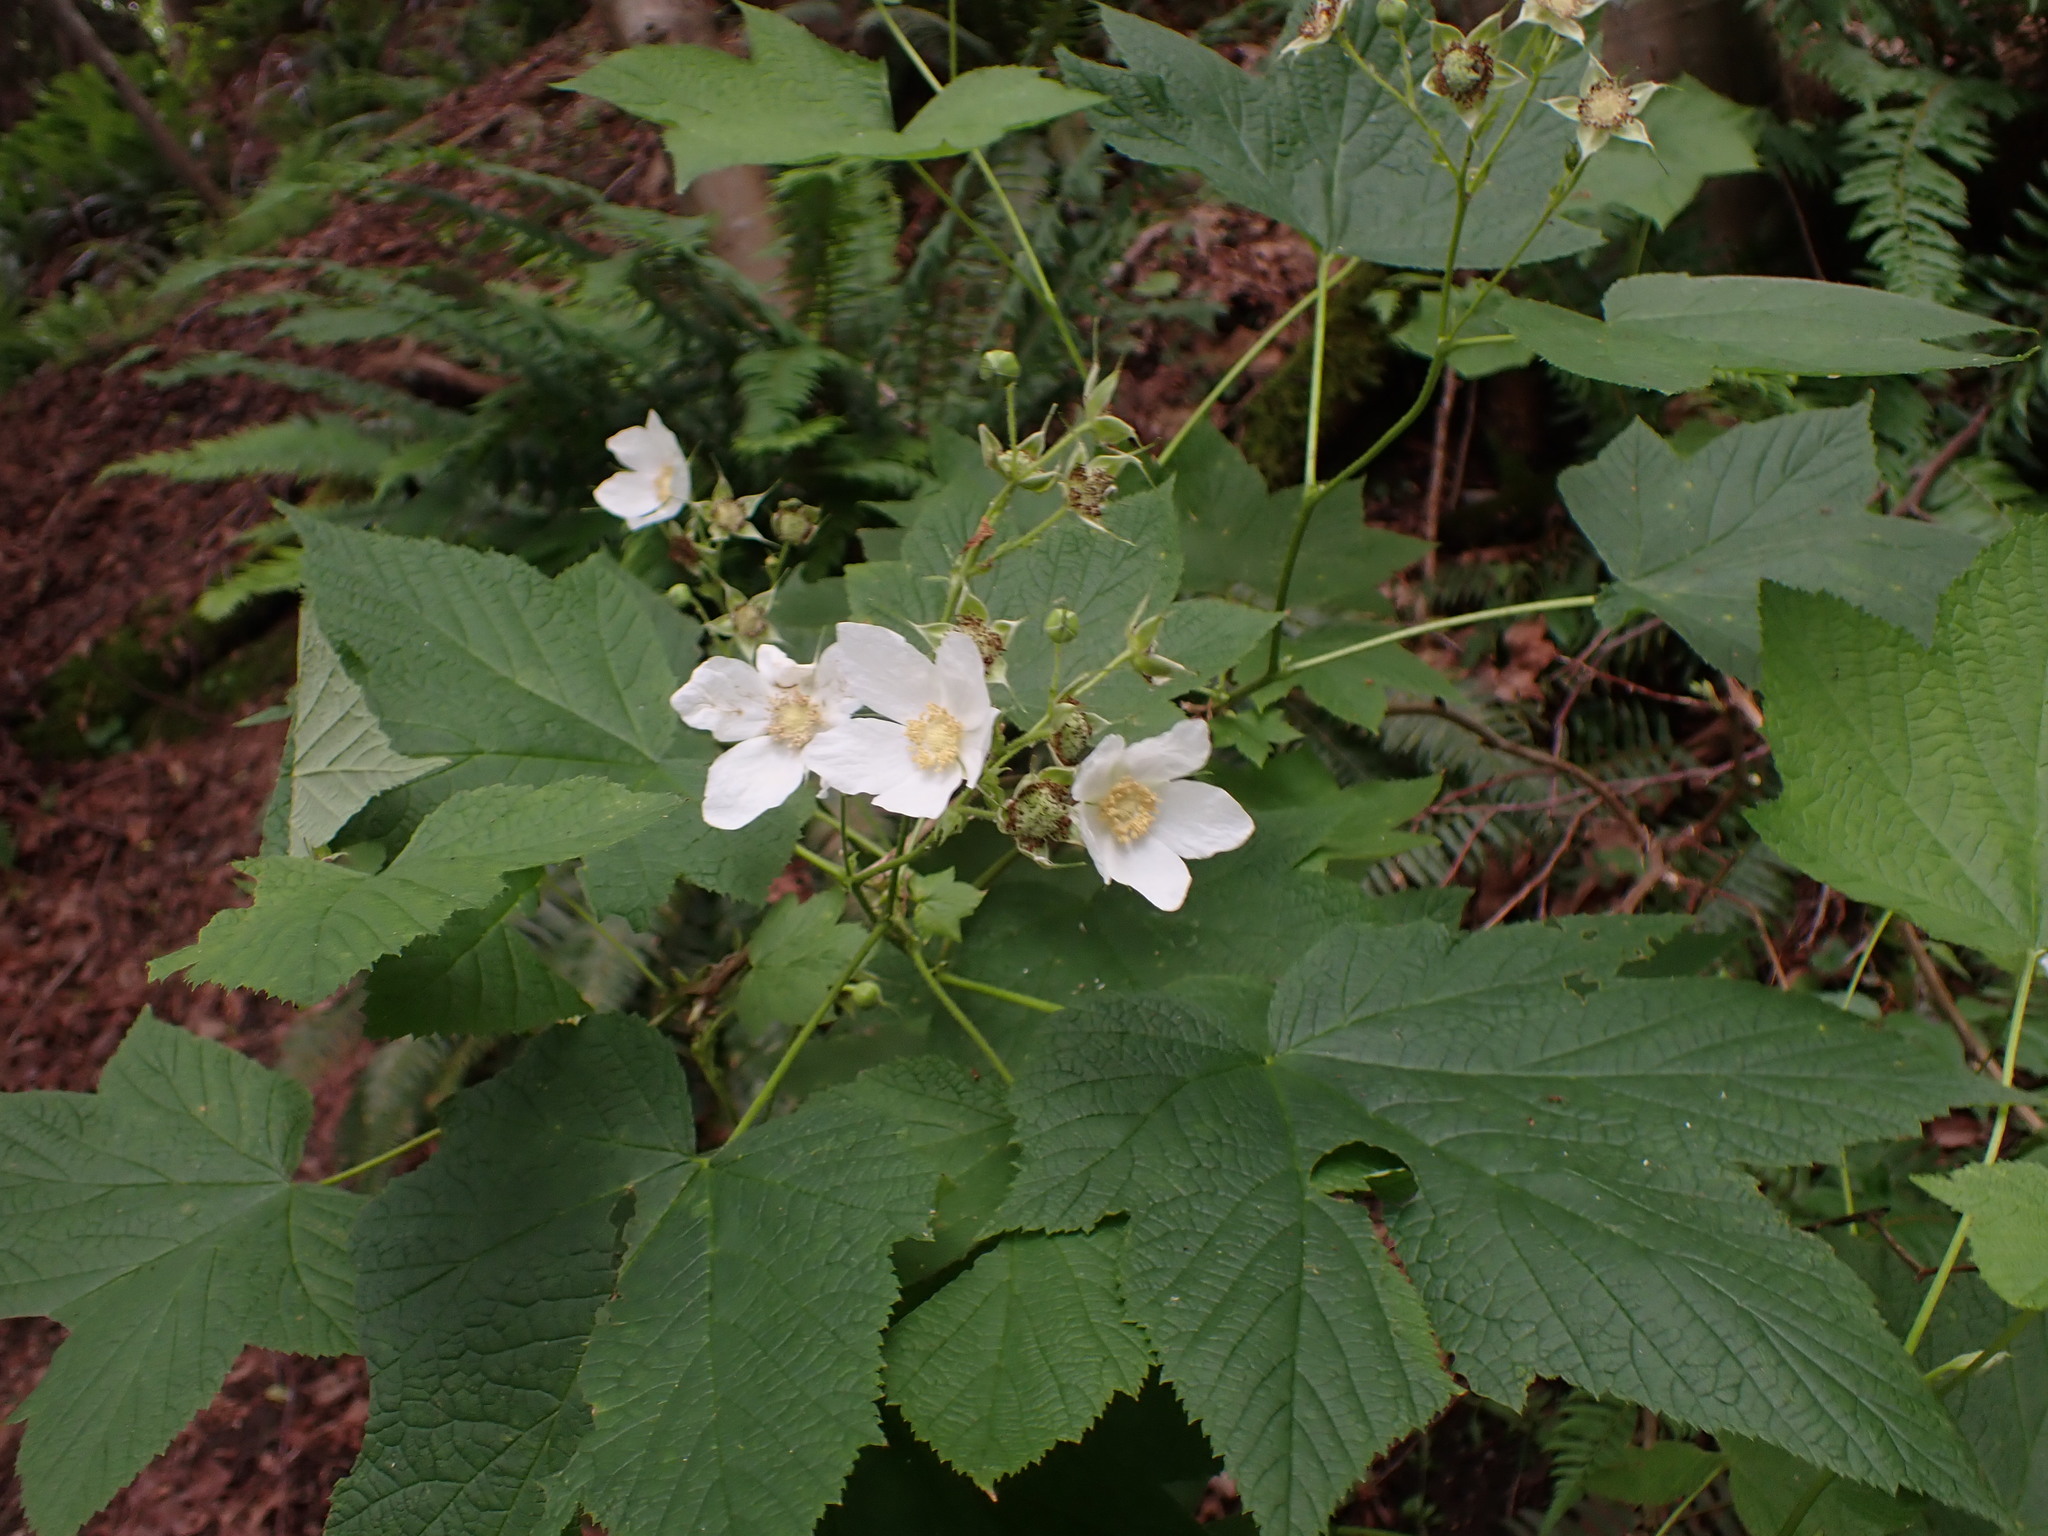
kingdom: Plantae
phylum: Tracheophyta
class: Magnoliopsida
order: Rosales
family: Rosaceae
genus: Rubus
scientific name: Rubus parviflorus
